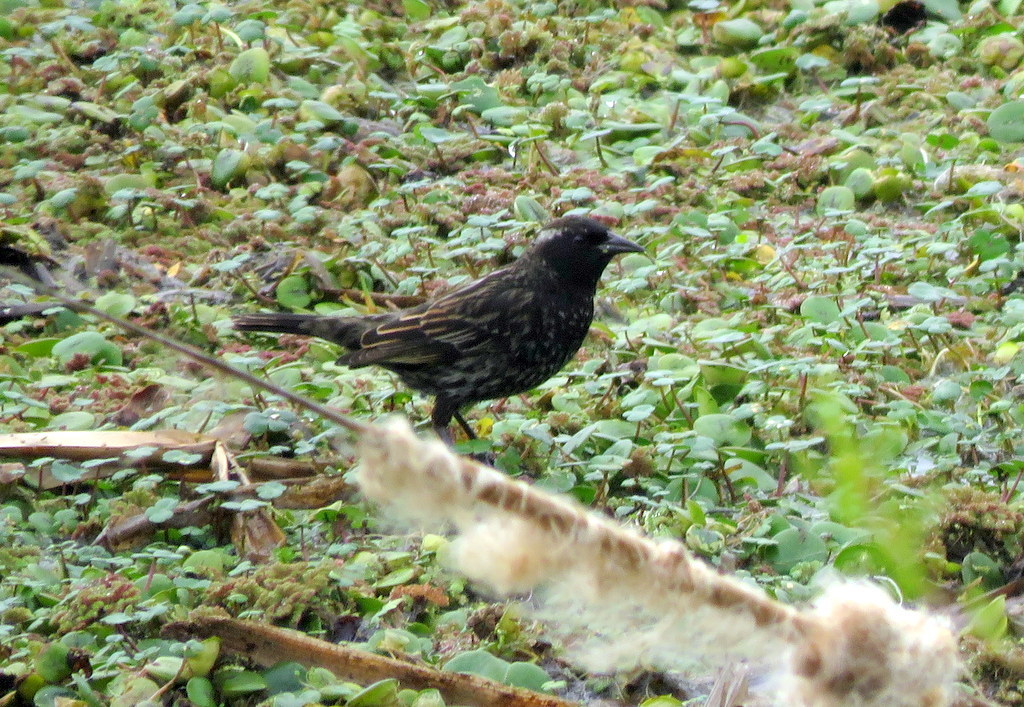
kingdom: Animalia
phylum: Chordata
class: Aves
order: Passeriformes
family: Icteridae
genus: Agelasticus
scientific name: Agelasticus thilius
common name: Yellow-winged blackbird
